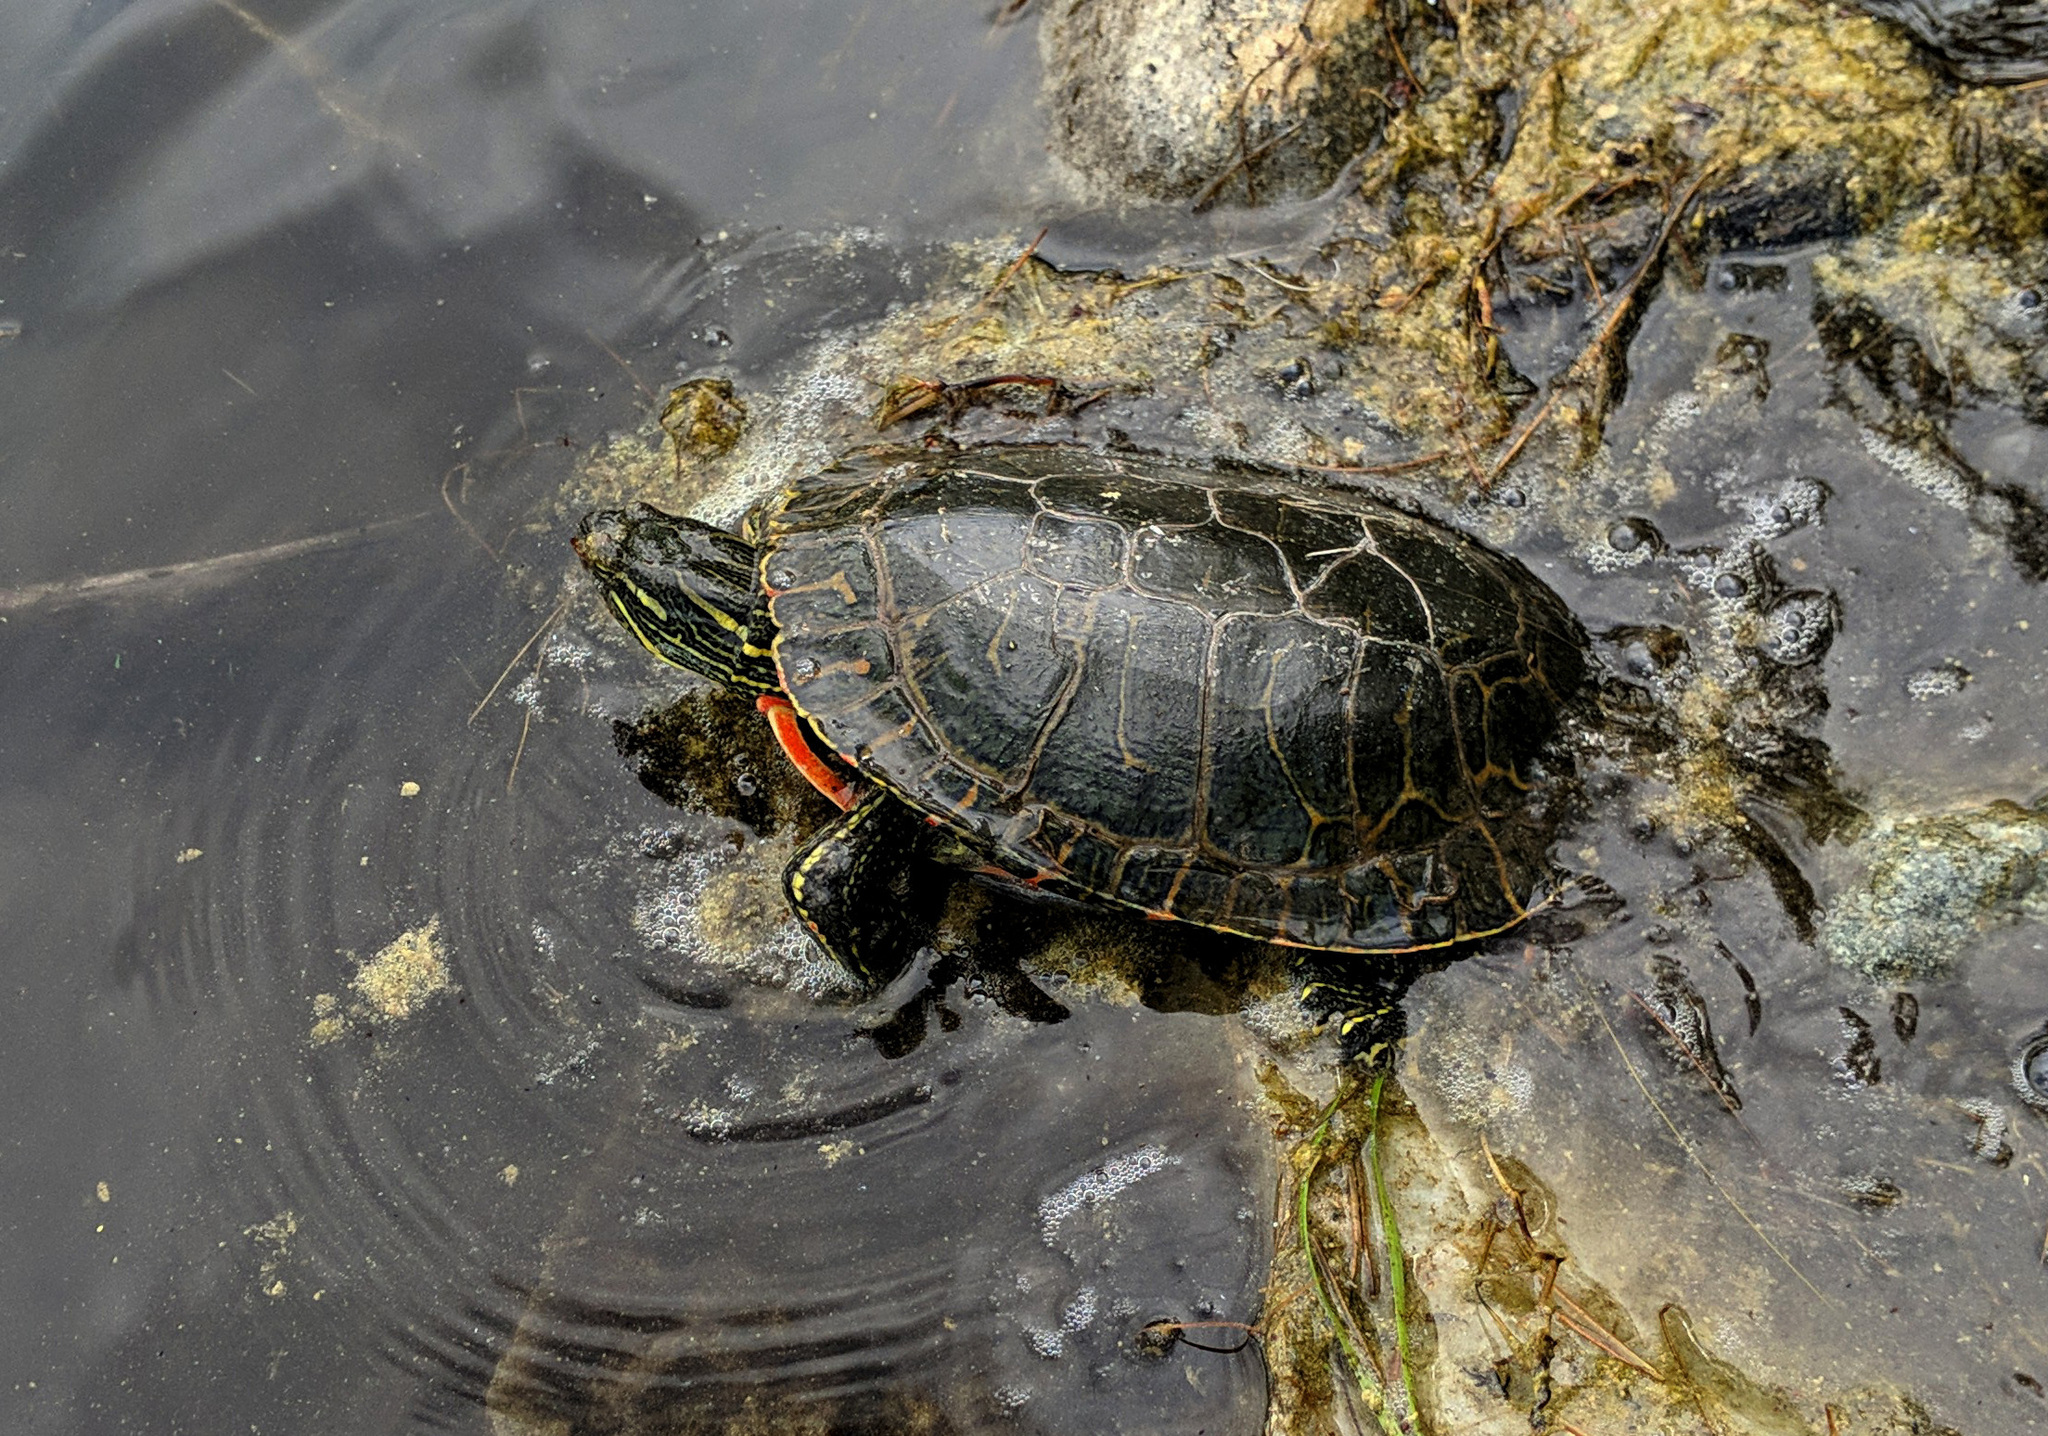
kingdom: Animalia
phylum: Chordata
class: Testudines
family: Emydidae
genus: Chrysemys
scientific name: Chrysemys picta
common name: Painted turtle
